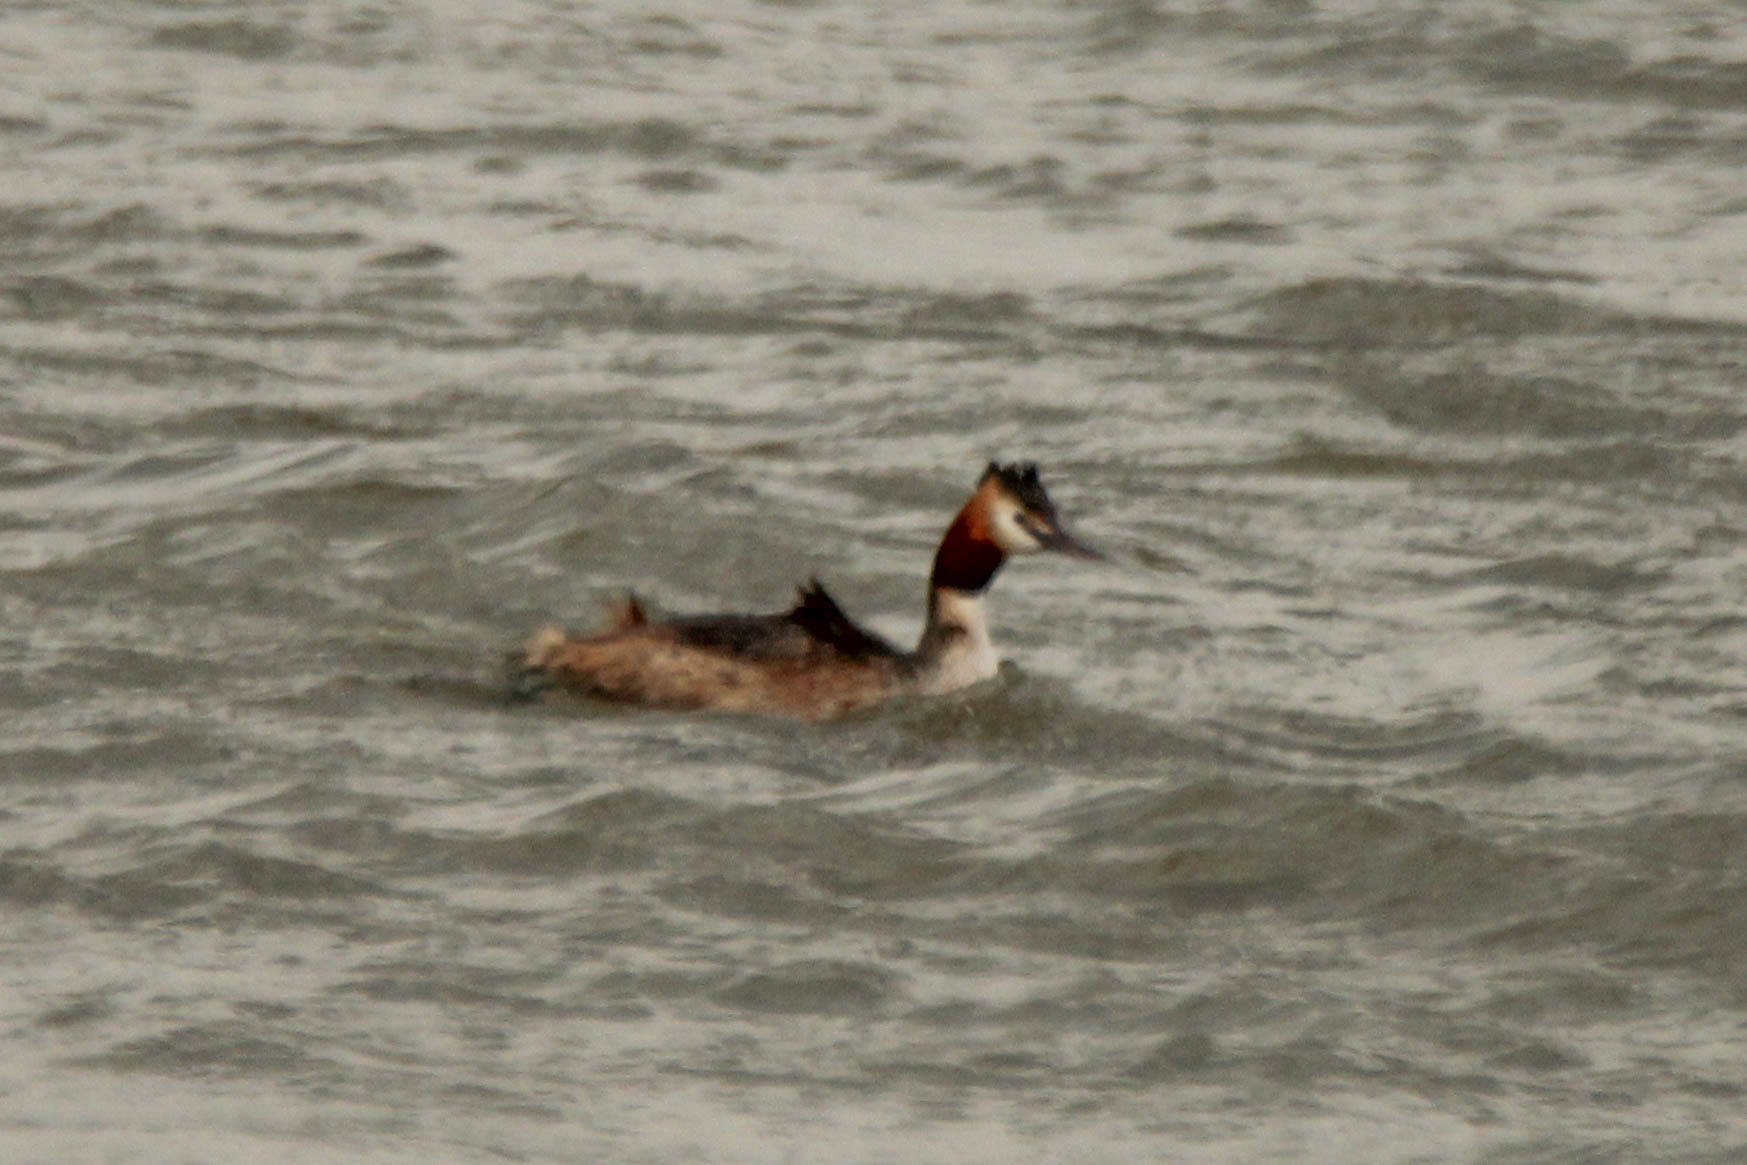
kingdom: Animalia
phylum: Chordata
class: Aves
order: Podicipediformes
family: Podicipedidae
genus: Podiceps
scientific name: Podiceps cristatus
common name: Great crested grebe
